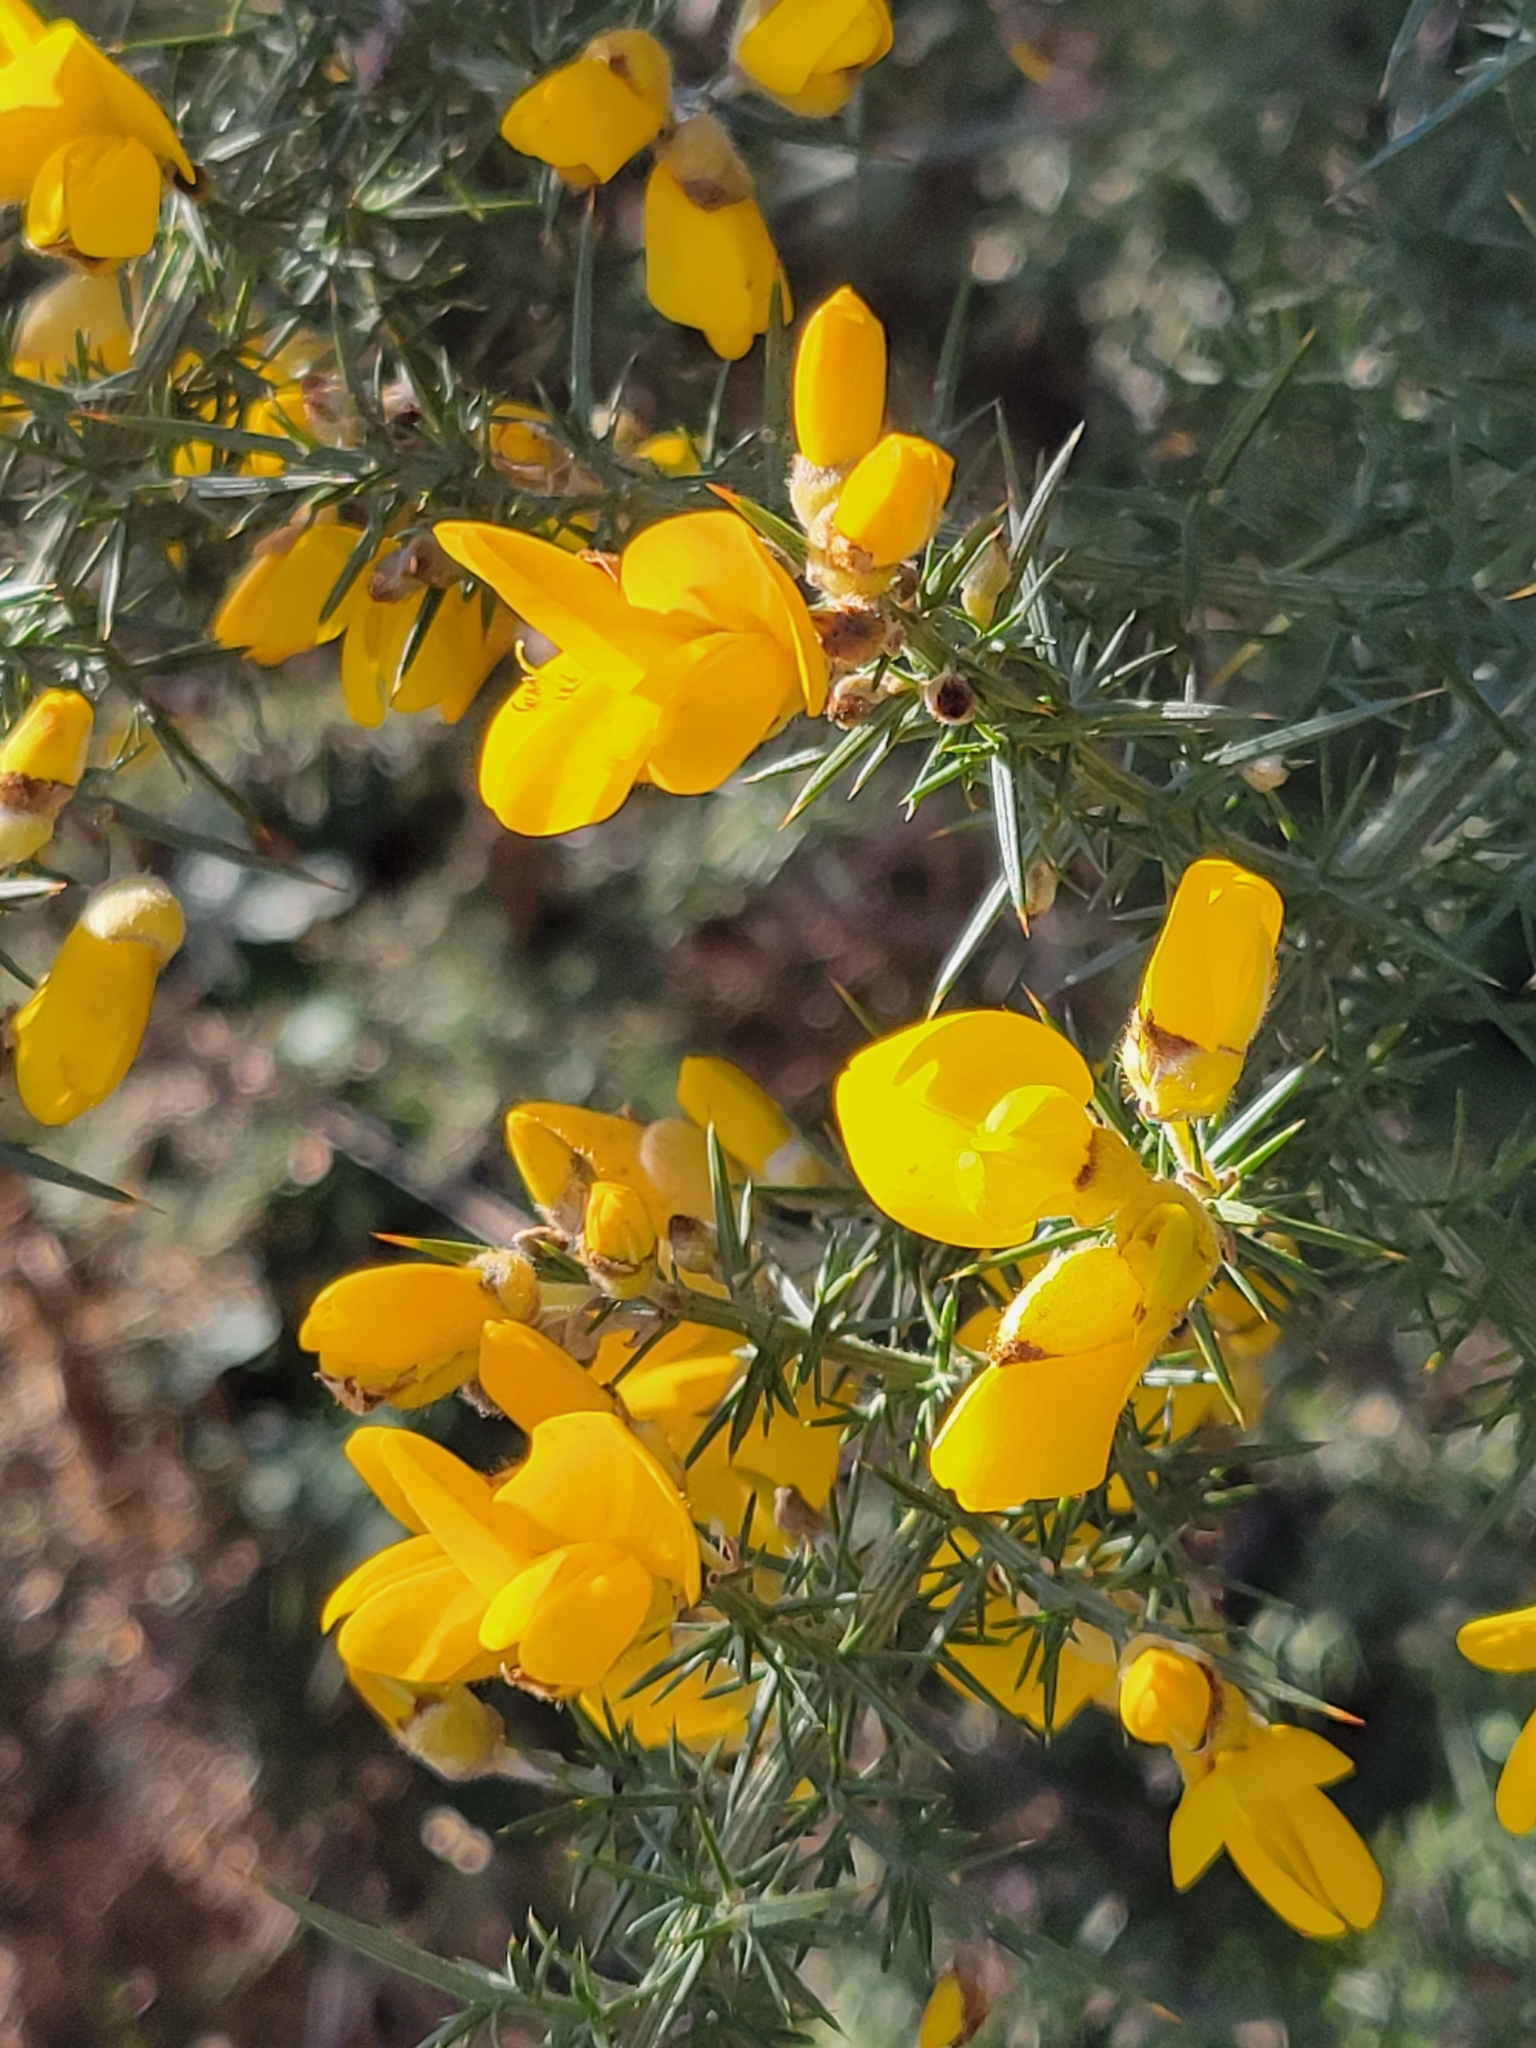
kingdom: Plantae
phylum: Tracheophyta
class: Magnoliopsida
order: Fabales
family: Fabaceae
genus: Ulex
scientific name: Ulex europaeus
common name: Common gorse
